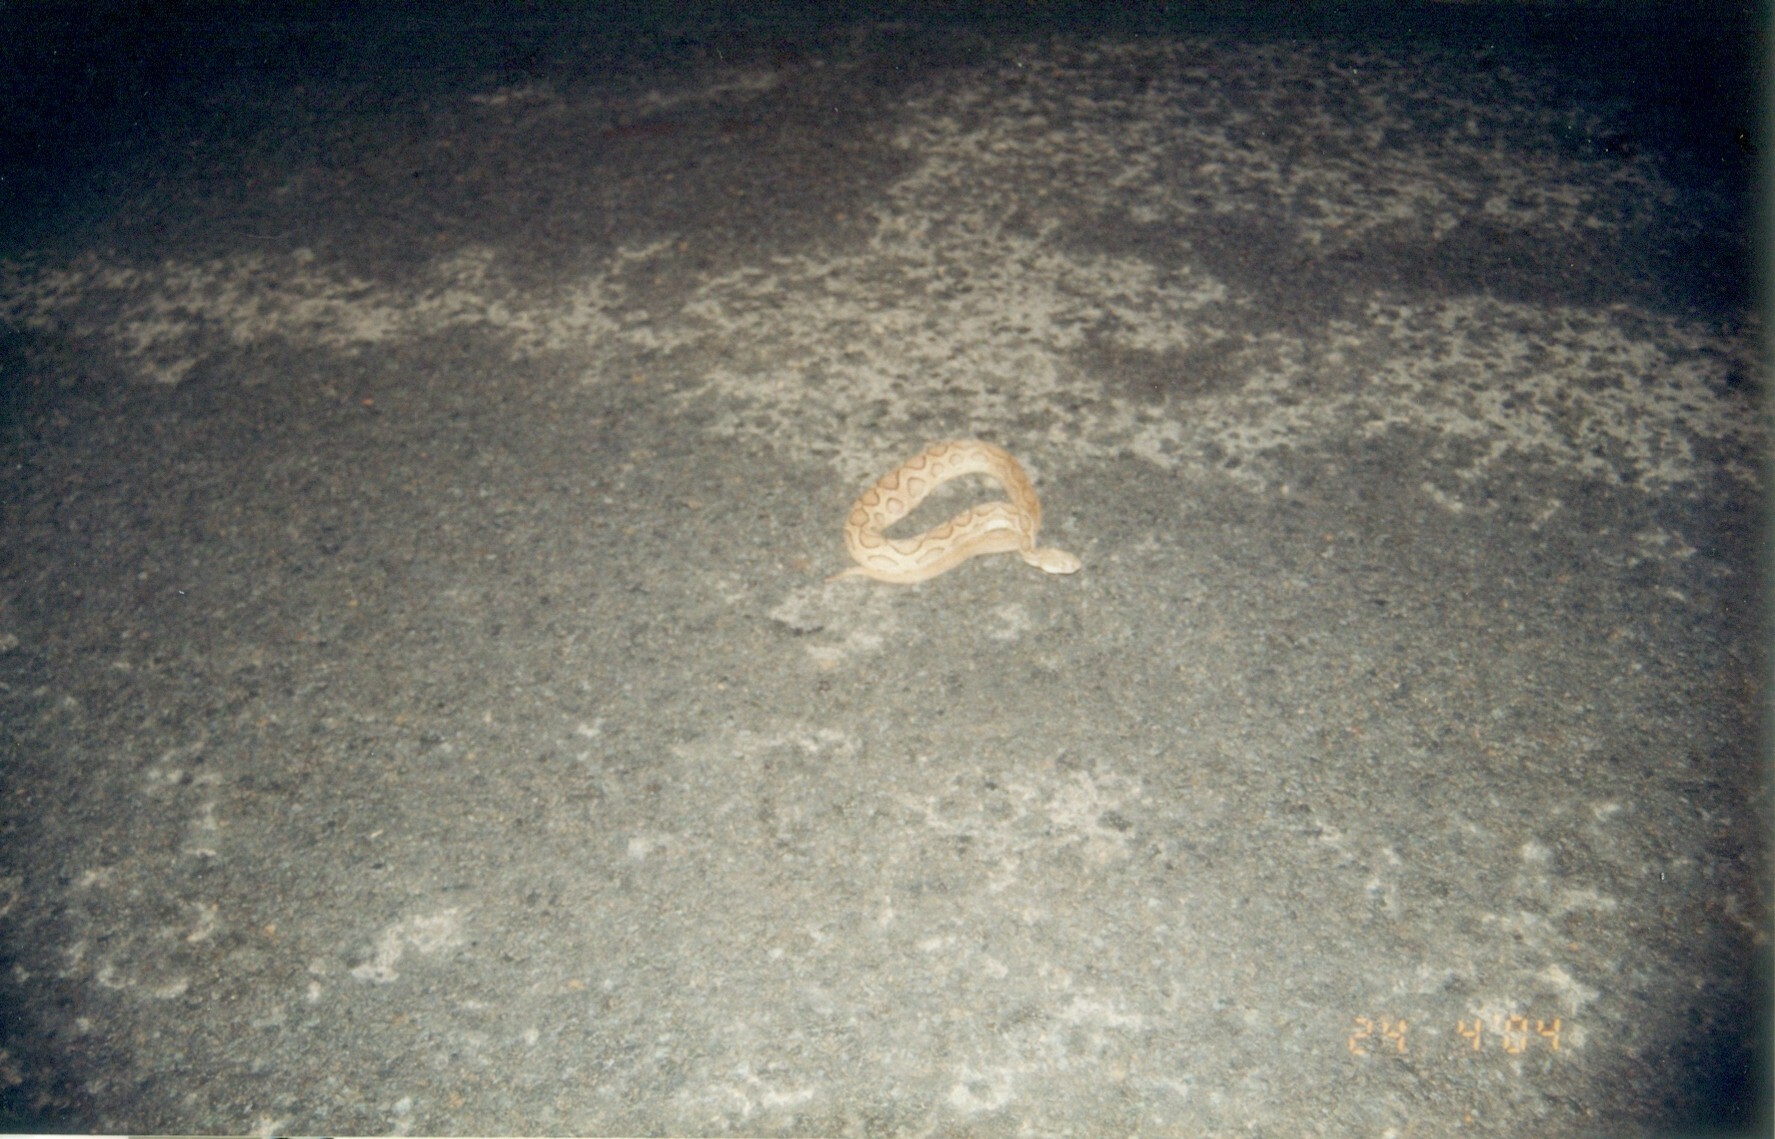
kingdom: Animalia
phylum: Chordata
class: Squamata
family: Viperidae
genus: Daboia
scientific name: Daboia russelii
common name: Western russel’s viper
